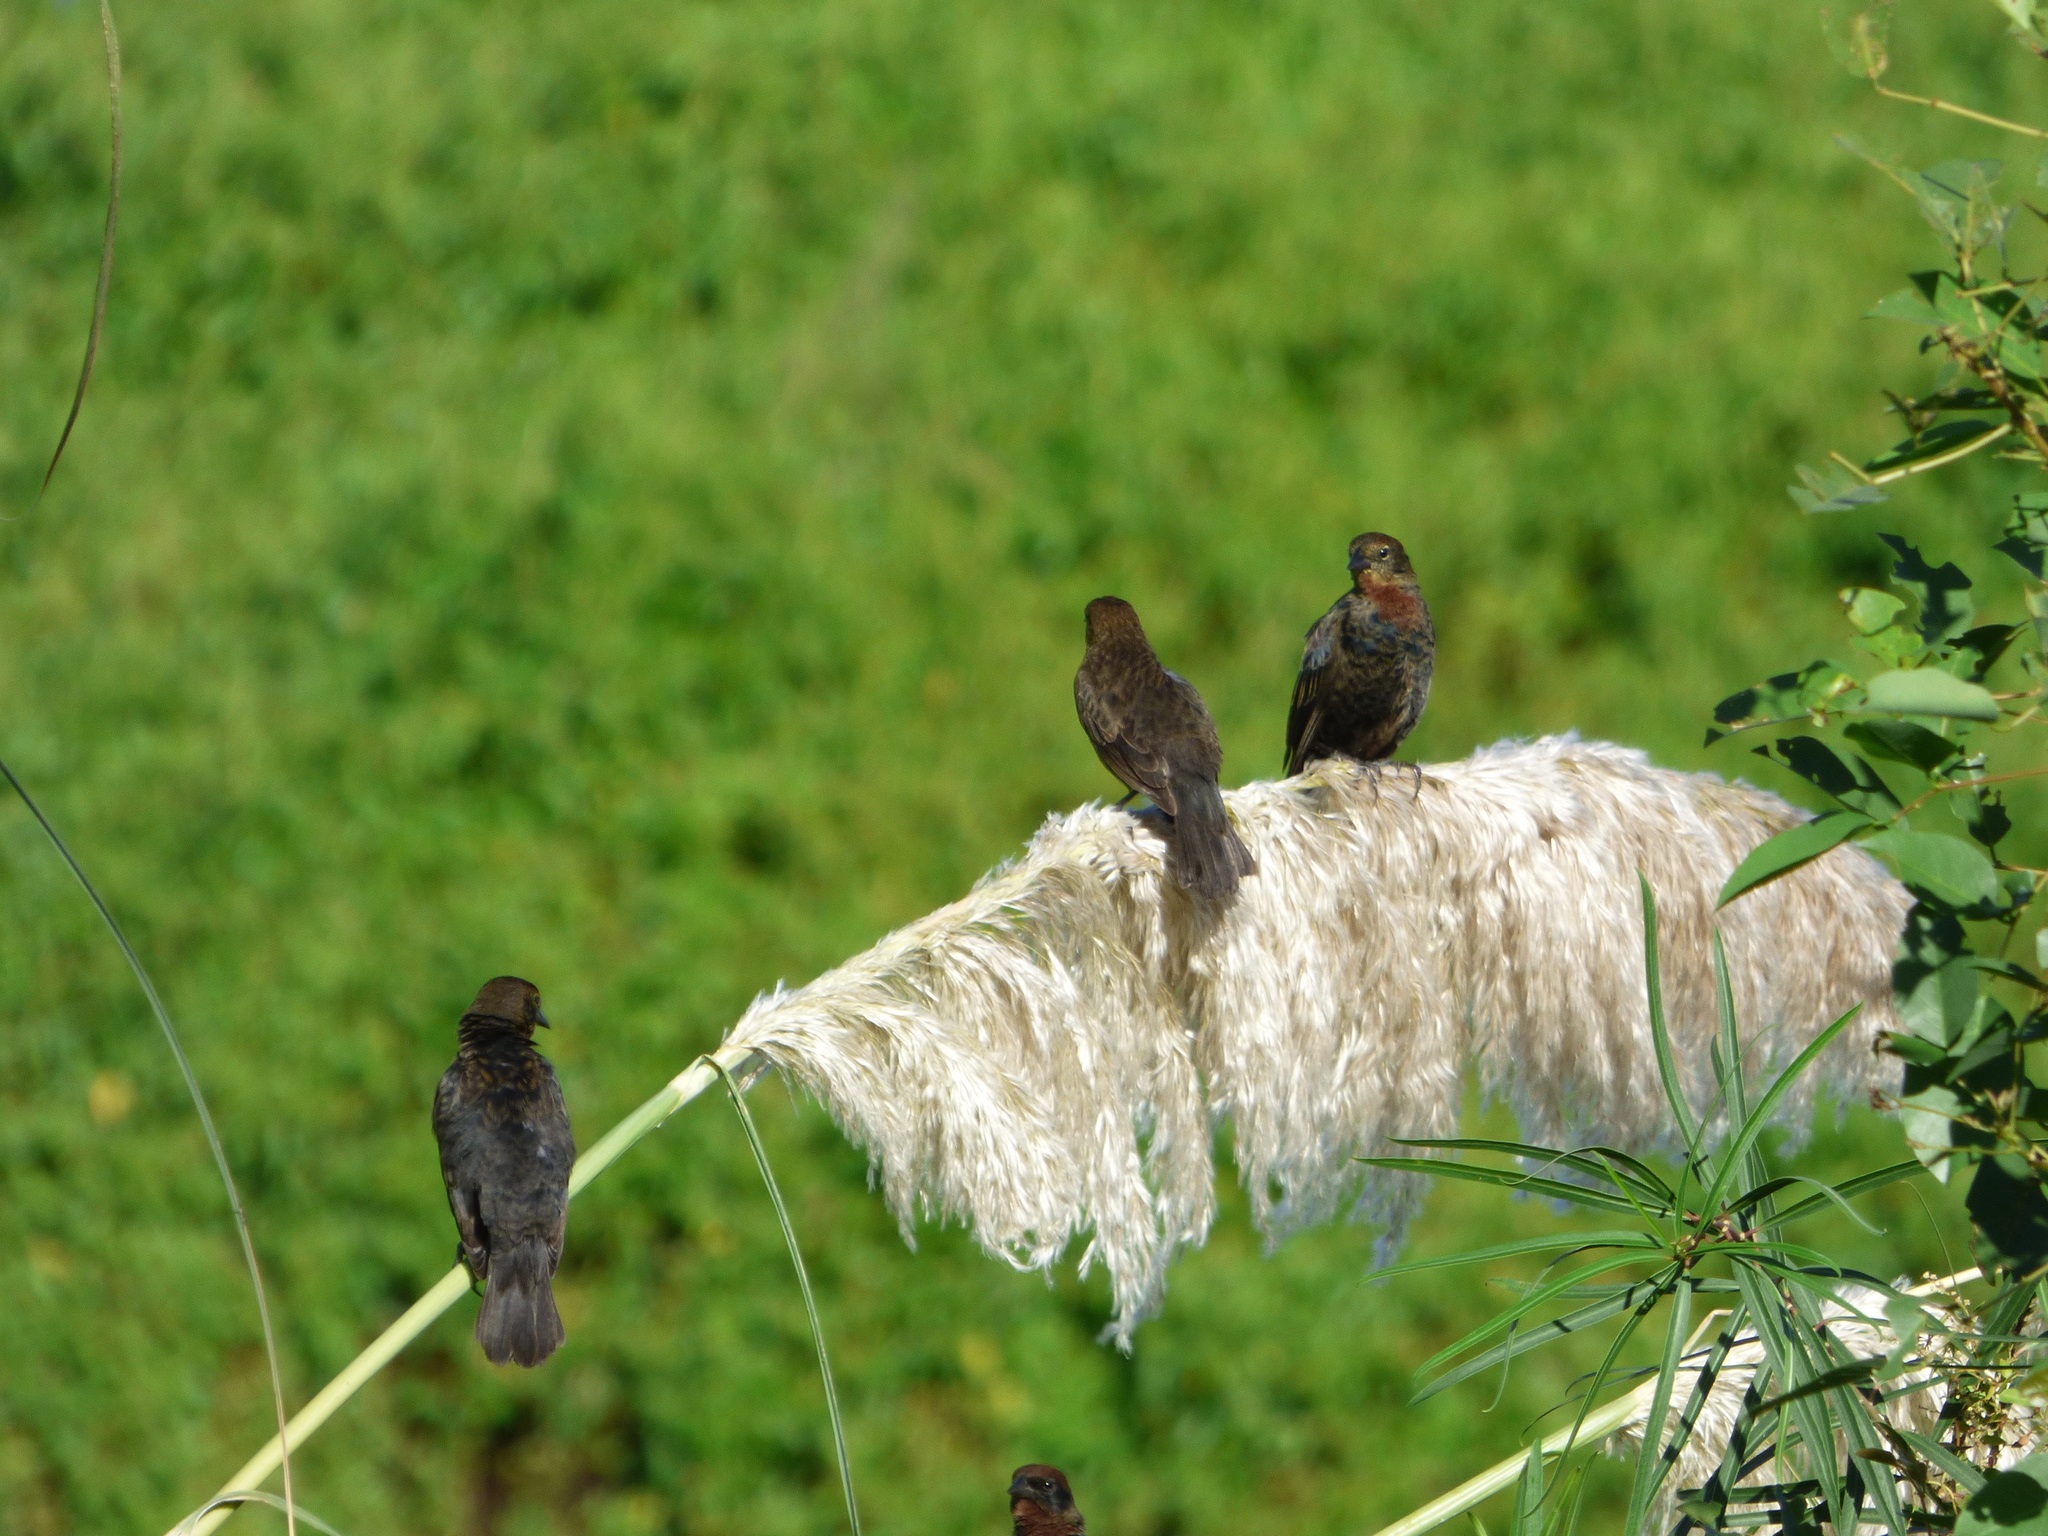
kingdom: Animalia
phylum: Chordata
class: Aves
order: Passeriformes
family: Icteridae
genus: Chrysomus
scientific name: Chrysomus ruficapillus
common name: Chestnut-capped blackbird
